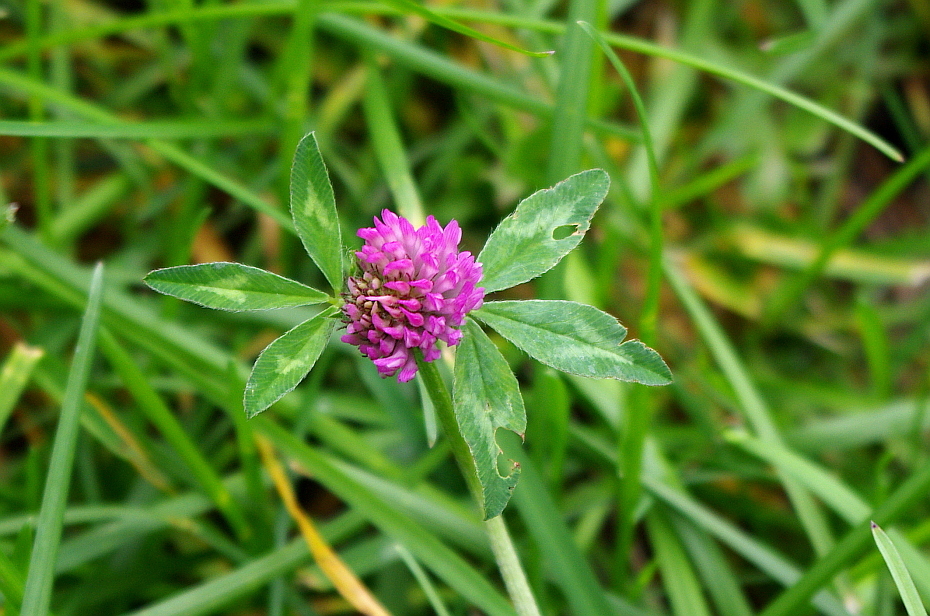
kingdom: Plantae
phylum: Tracheophyta
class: Magnoliopsida
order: Fabales
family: Fabaceae
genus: Trifolium
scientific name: Trifolium pratense
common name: Red clover
